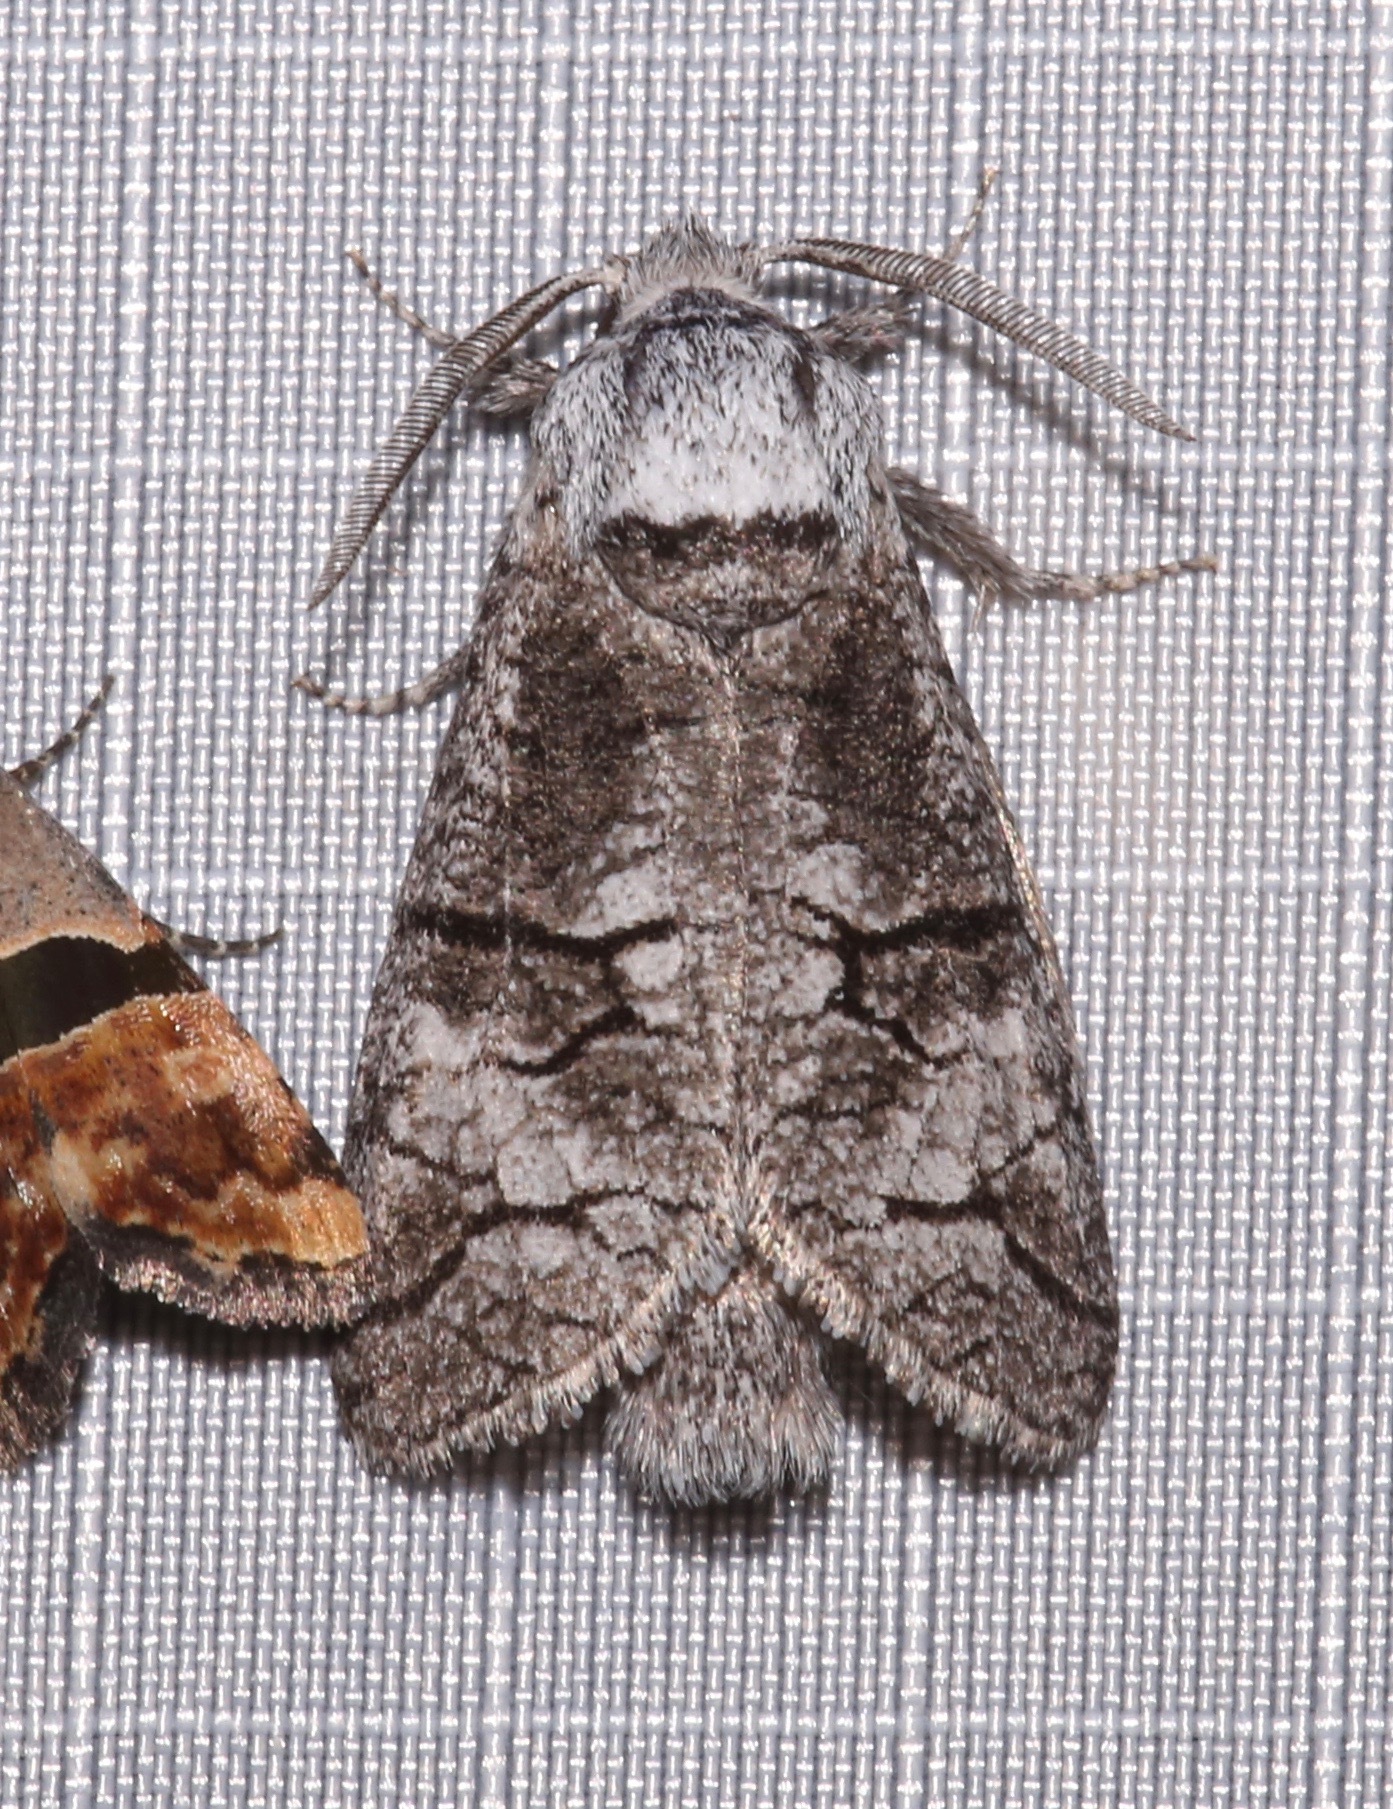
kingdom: Animalia
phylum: Arthropoda
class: Insecta
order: Lepidoptera
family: Cossidae
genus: Fania
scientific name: Fania nanus
